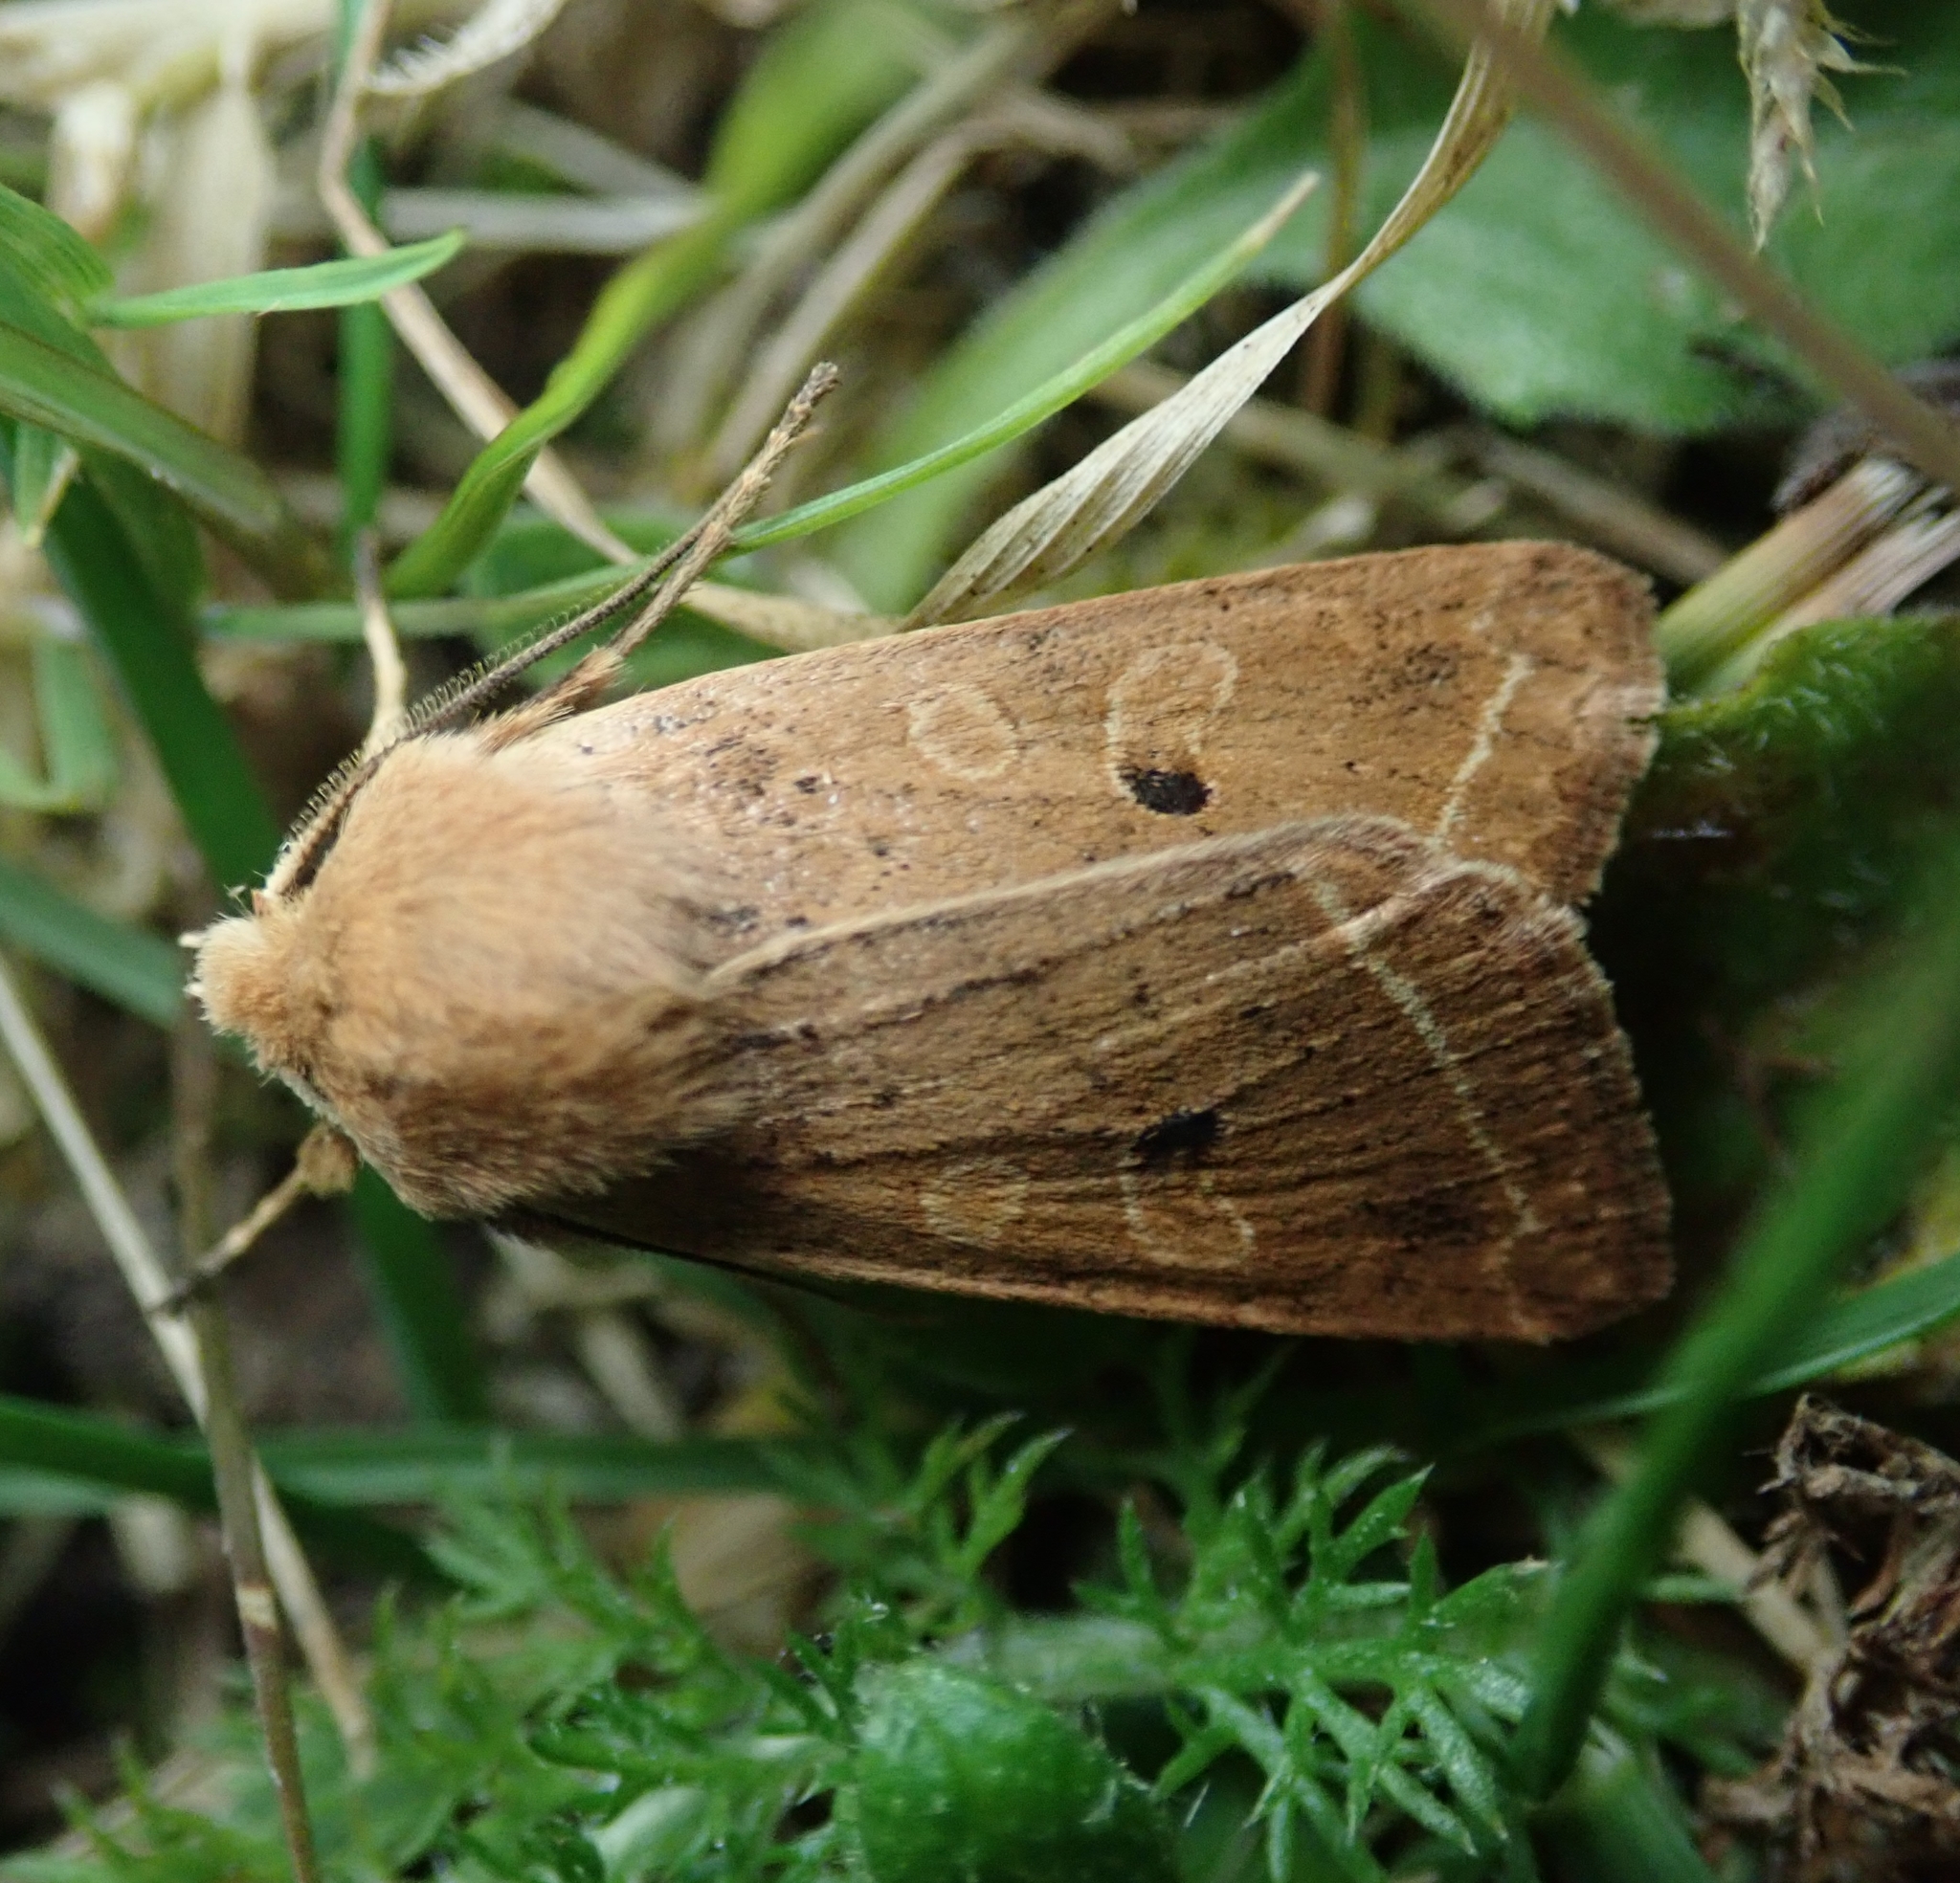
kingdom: Animalia
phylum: Arthropoda
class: Insecta
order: Lepidoptera
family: Noctuidae
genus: Agrochola
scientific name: Agrochola macilenta
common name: Yellow-line quaker
